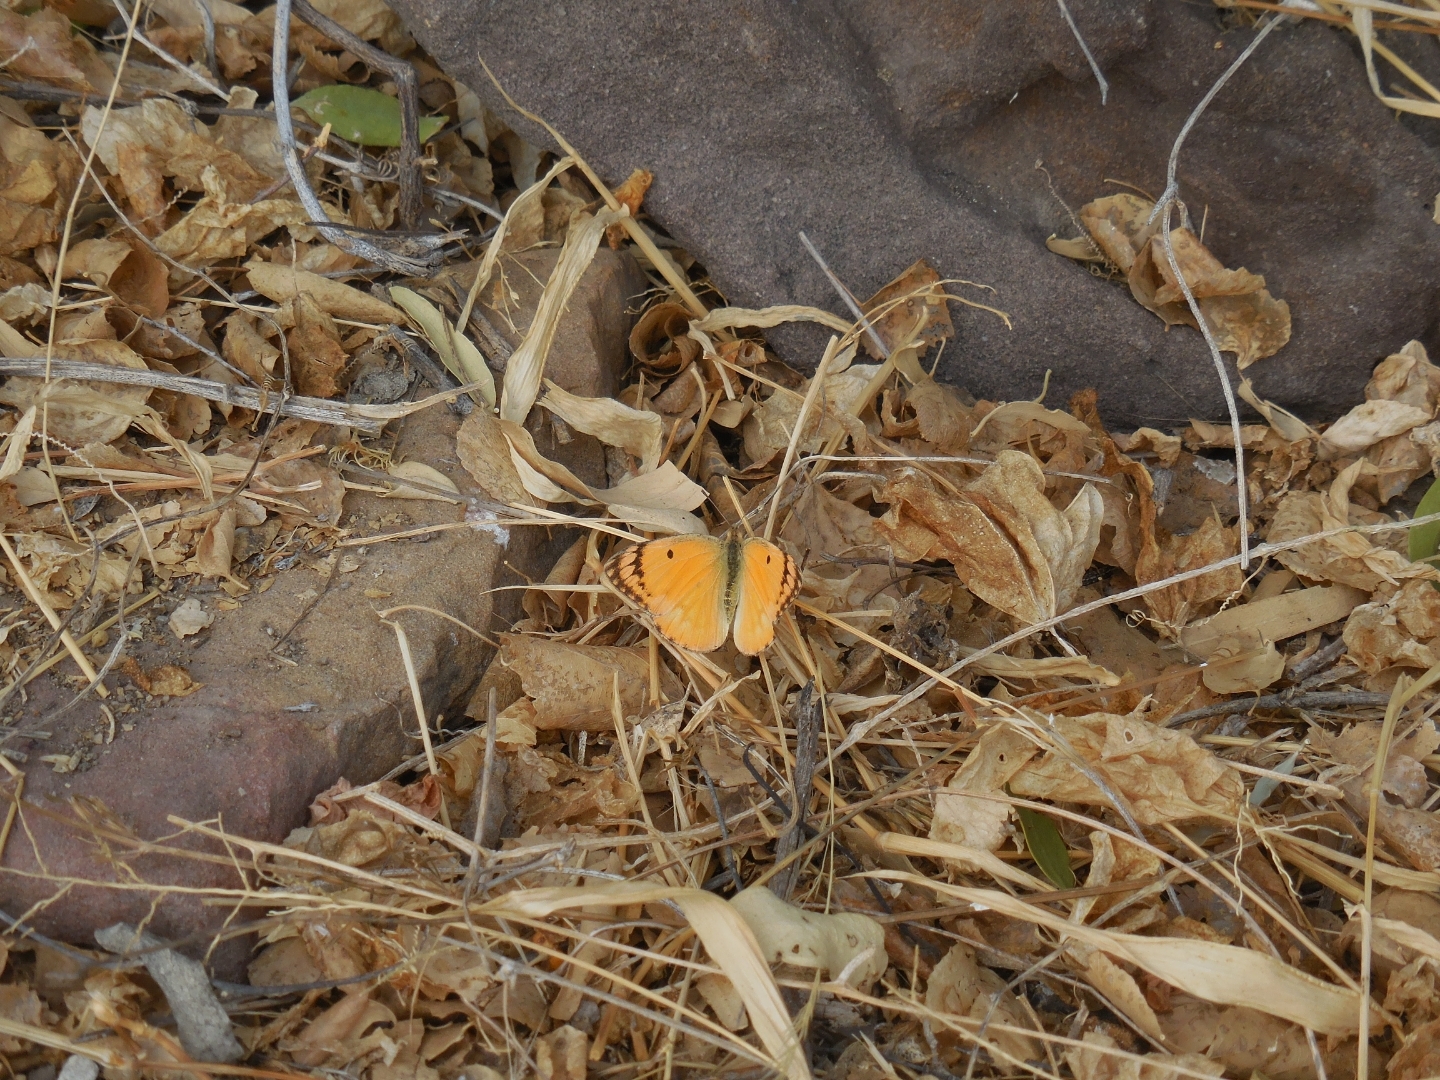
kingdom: Animalia
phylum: Arthropoda
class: Insecta
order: Lepidoptera
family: Pieridae
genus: Colotis
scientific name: Colotis fausta
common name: Large salmon arab
